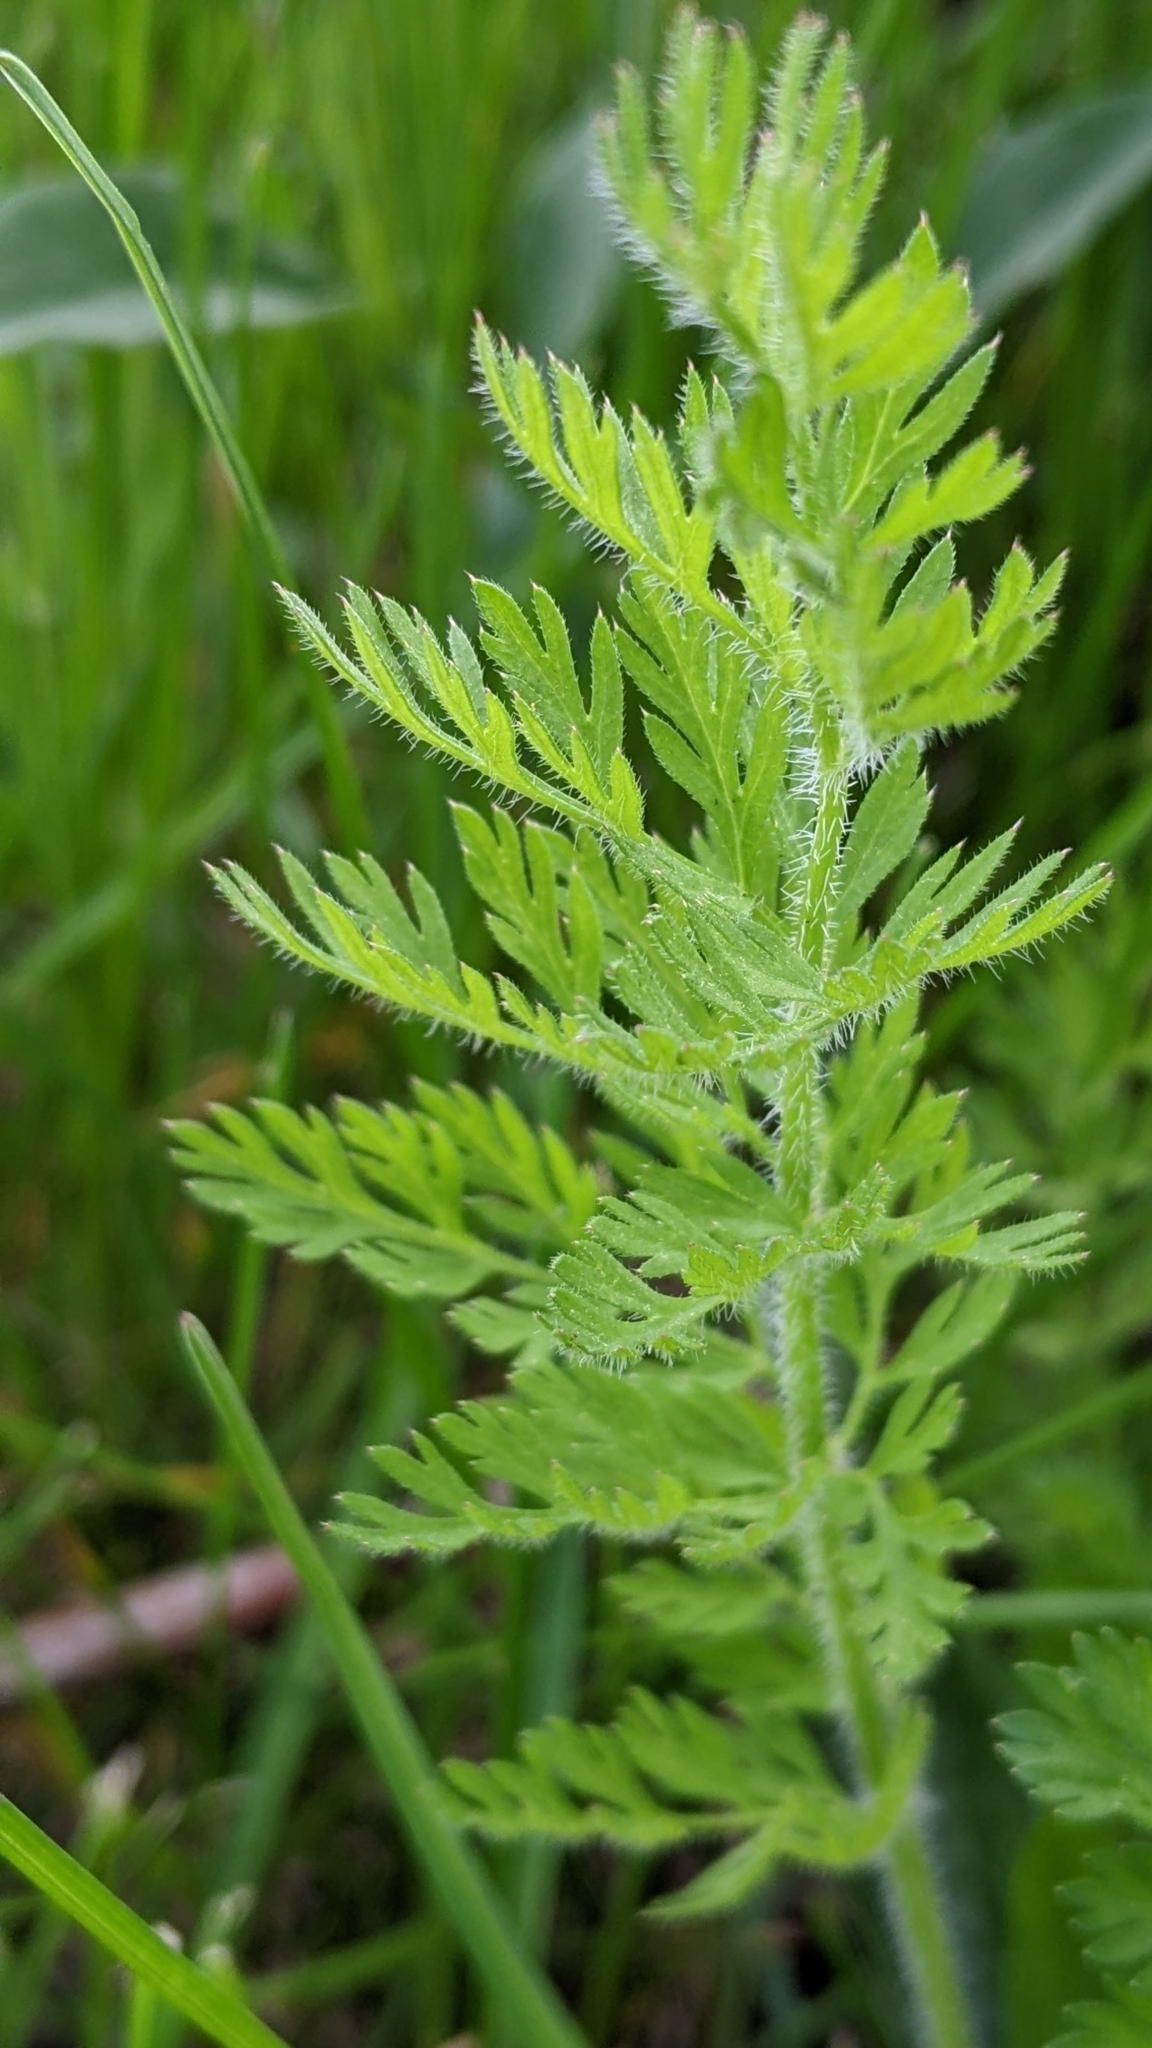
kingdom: Plantae
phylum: Tracheophyta
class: Magnoliopsida
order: Apiales
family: Apiaceae
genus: Daucus
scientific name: Daucus carota
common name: Wild carrot
